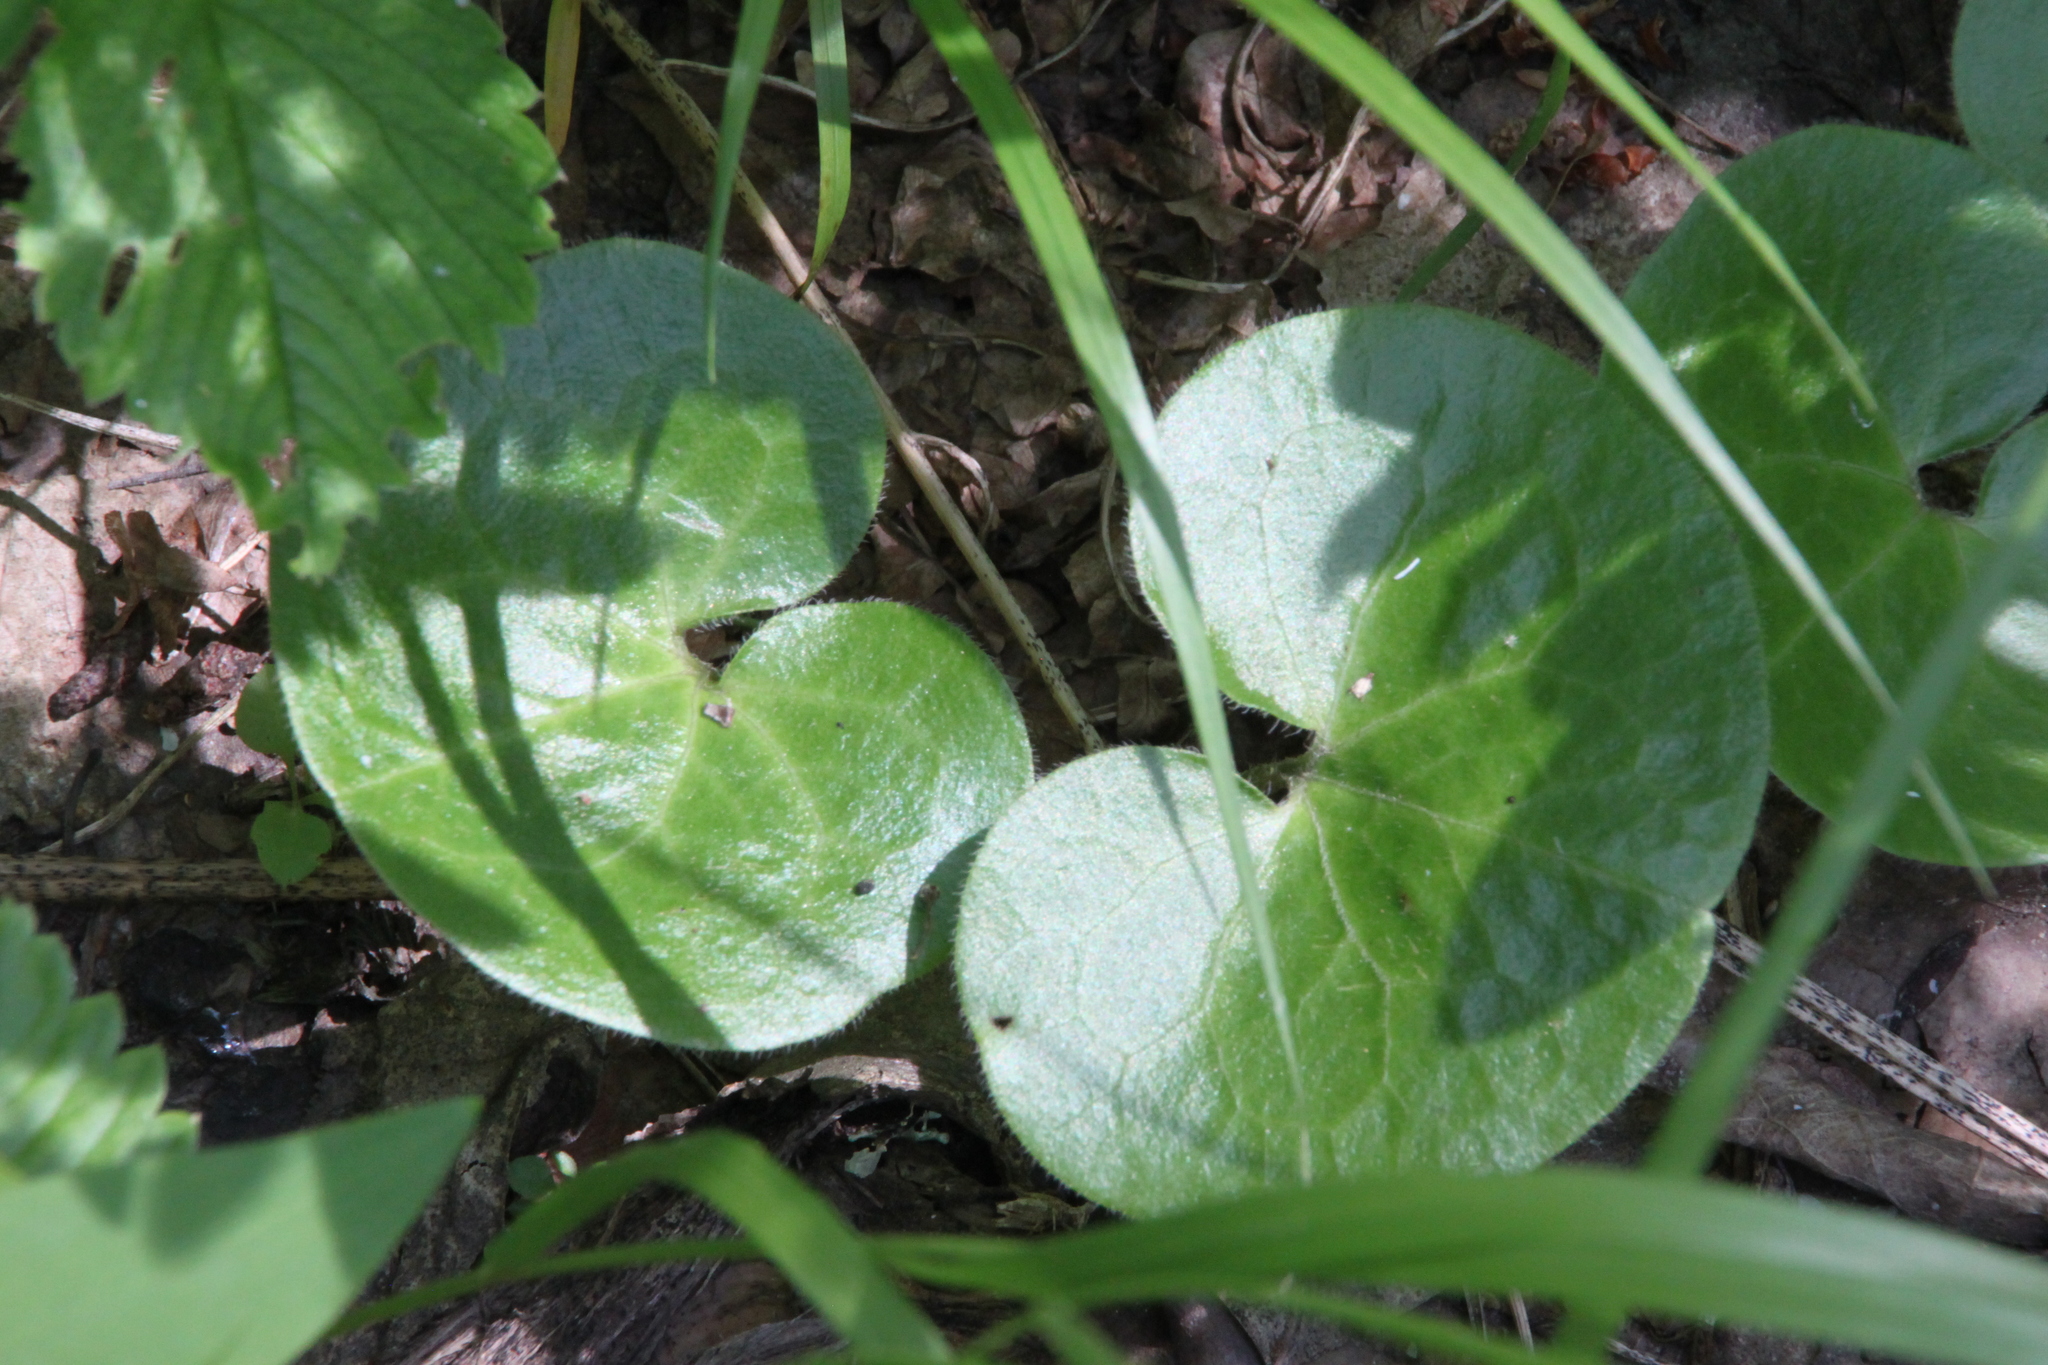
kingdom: Plantae
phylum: Tracheophyta
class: Magnoliopsida
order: Piperales
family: Aristolochiaceae
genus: Asarum
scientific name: Asarum europaeum
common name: Asarabacca
